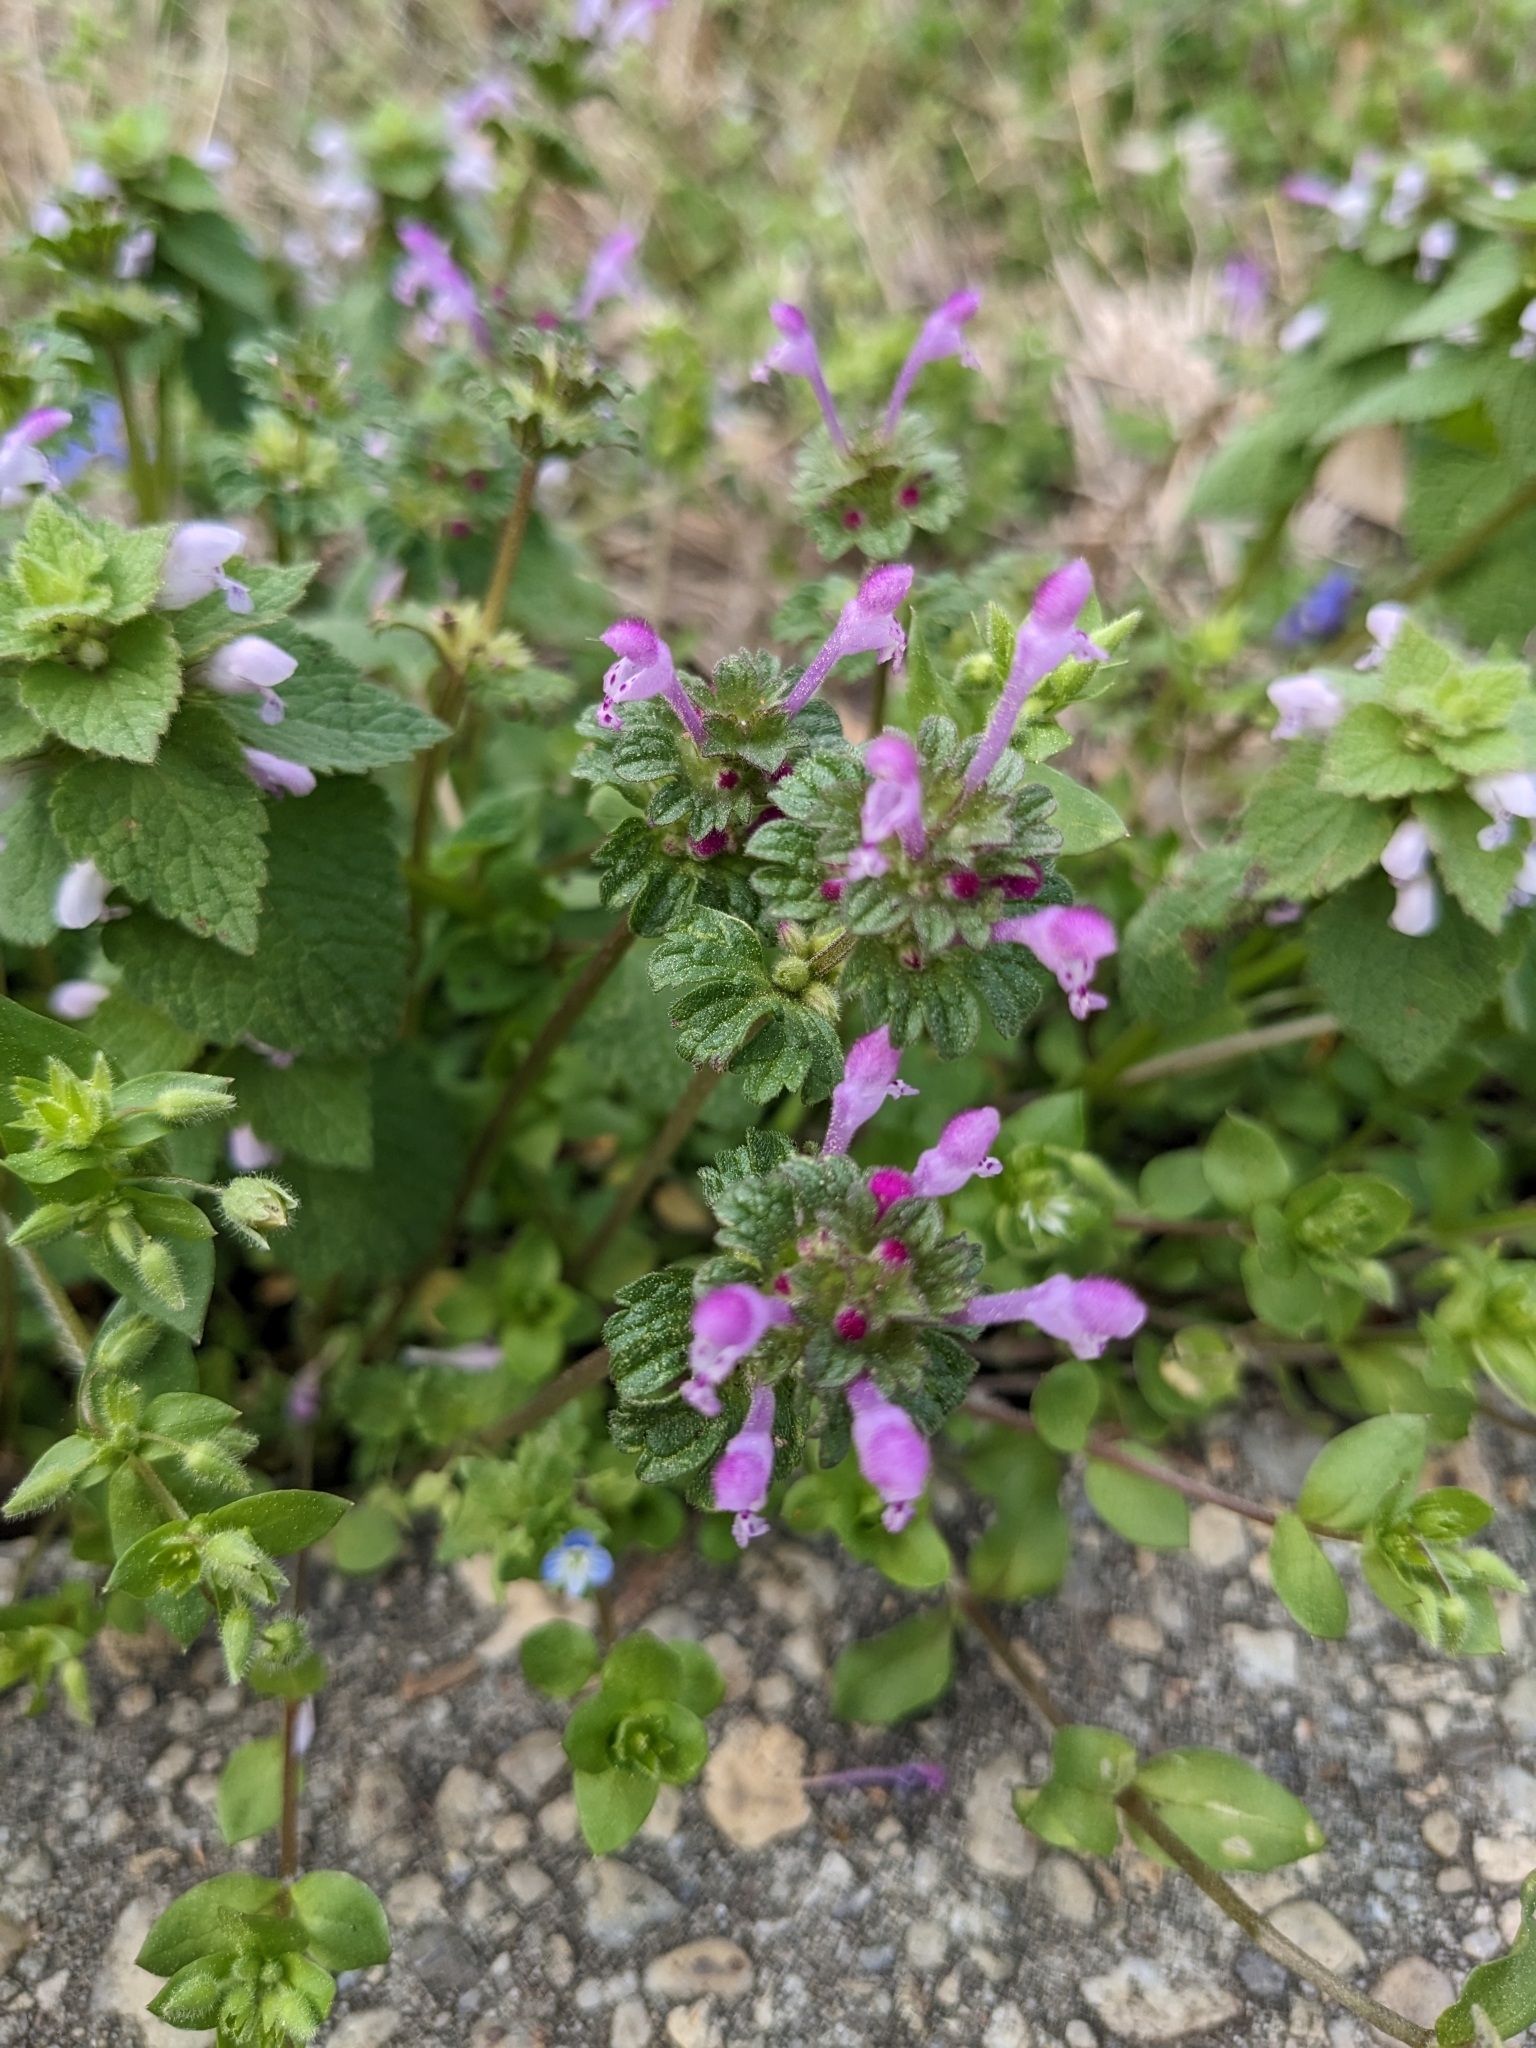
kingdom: Plantae
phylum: Tracheophyta
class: Magnoliopsida
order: Lamiales
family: Lamiaceae
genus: Lamium
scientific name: Lamium amplexicaule
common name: Henbit dead-nettle
